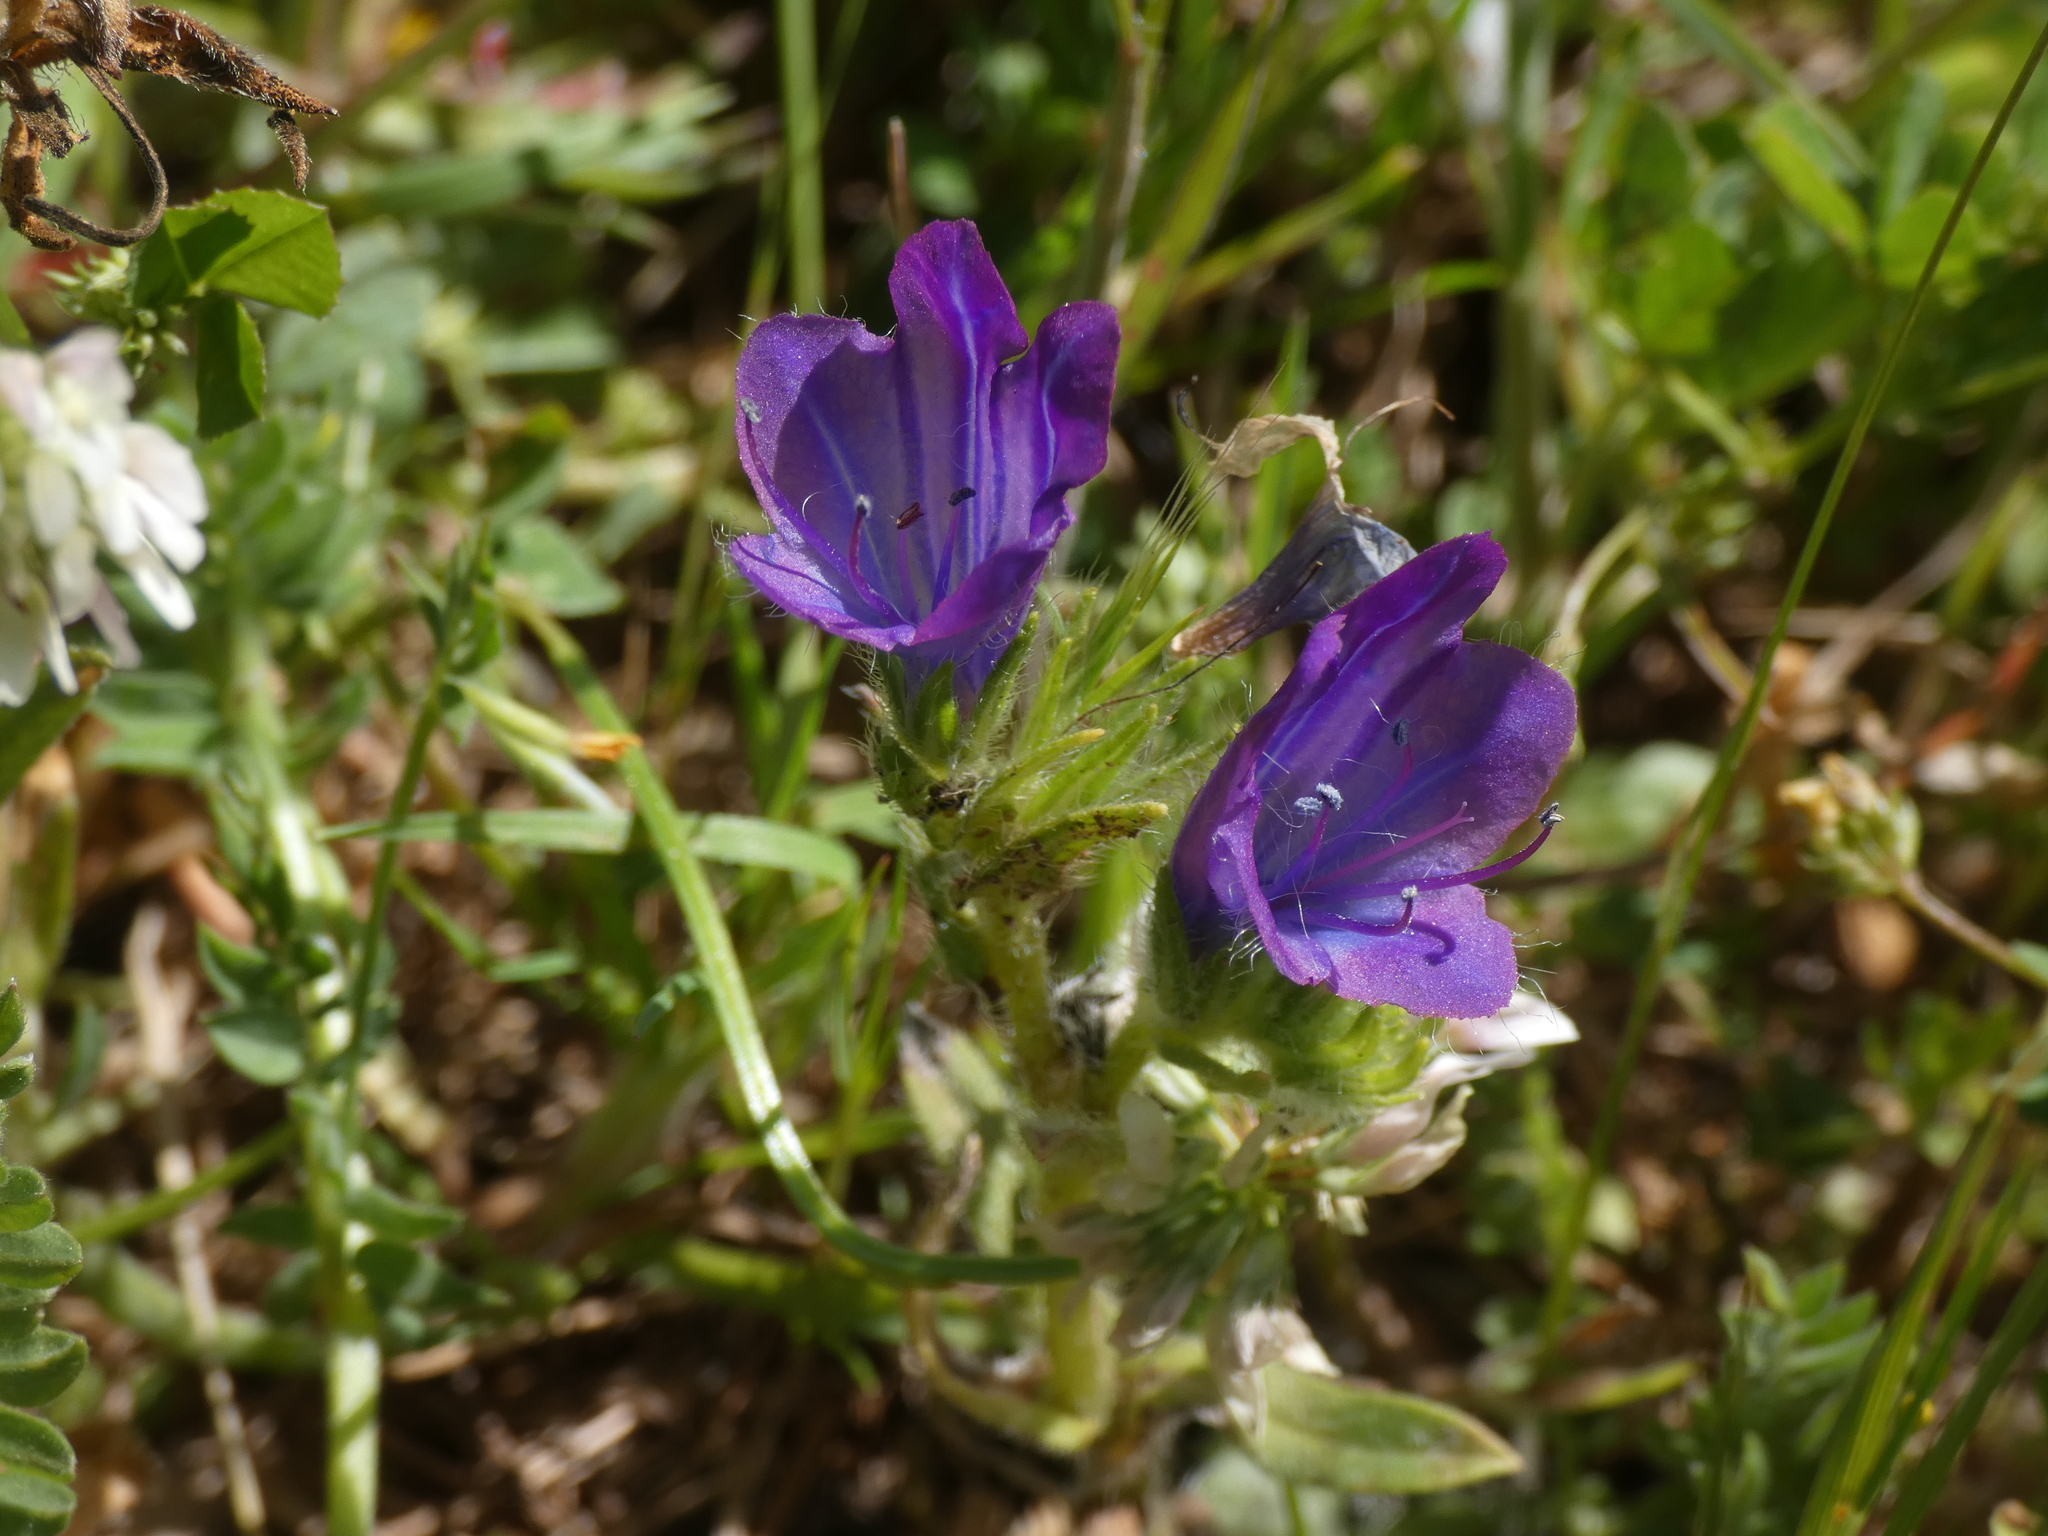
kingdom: Plantae
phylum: Tracheophyta
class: Magnoliopsida
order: Boraginales
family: Boraginaceae
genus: Echium
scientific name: Echium plantagineum
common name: Purple viper's-bugloss
